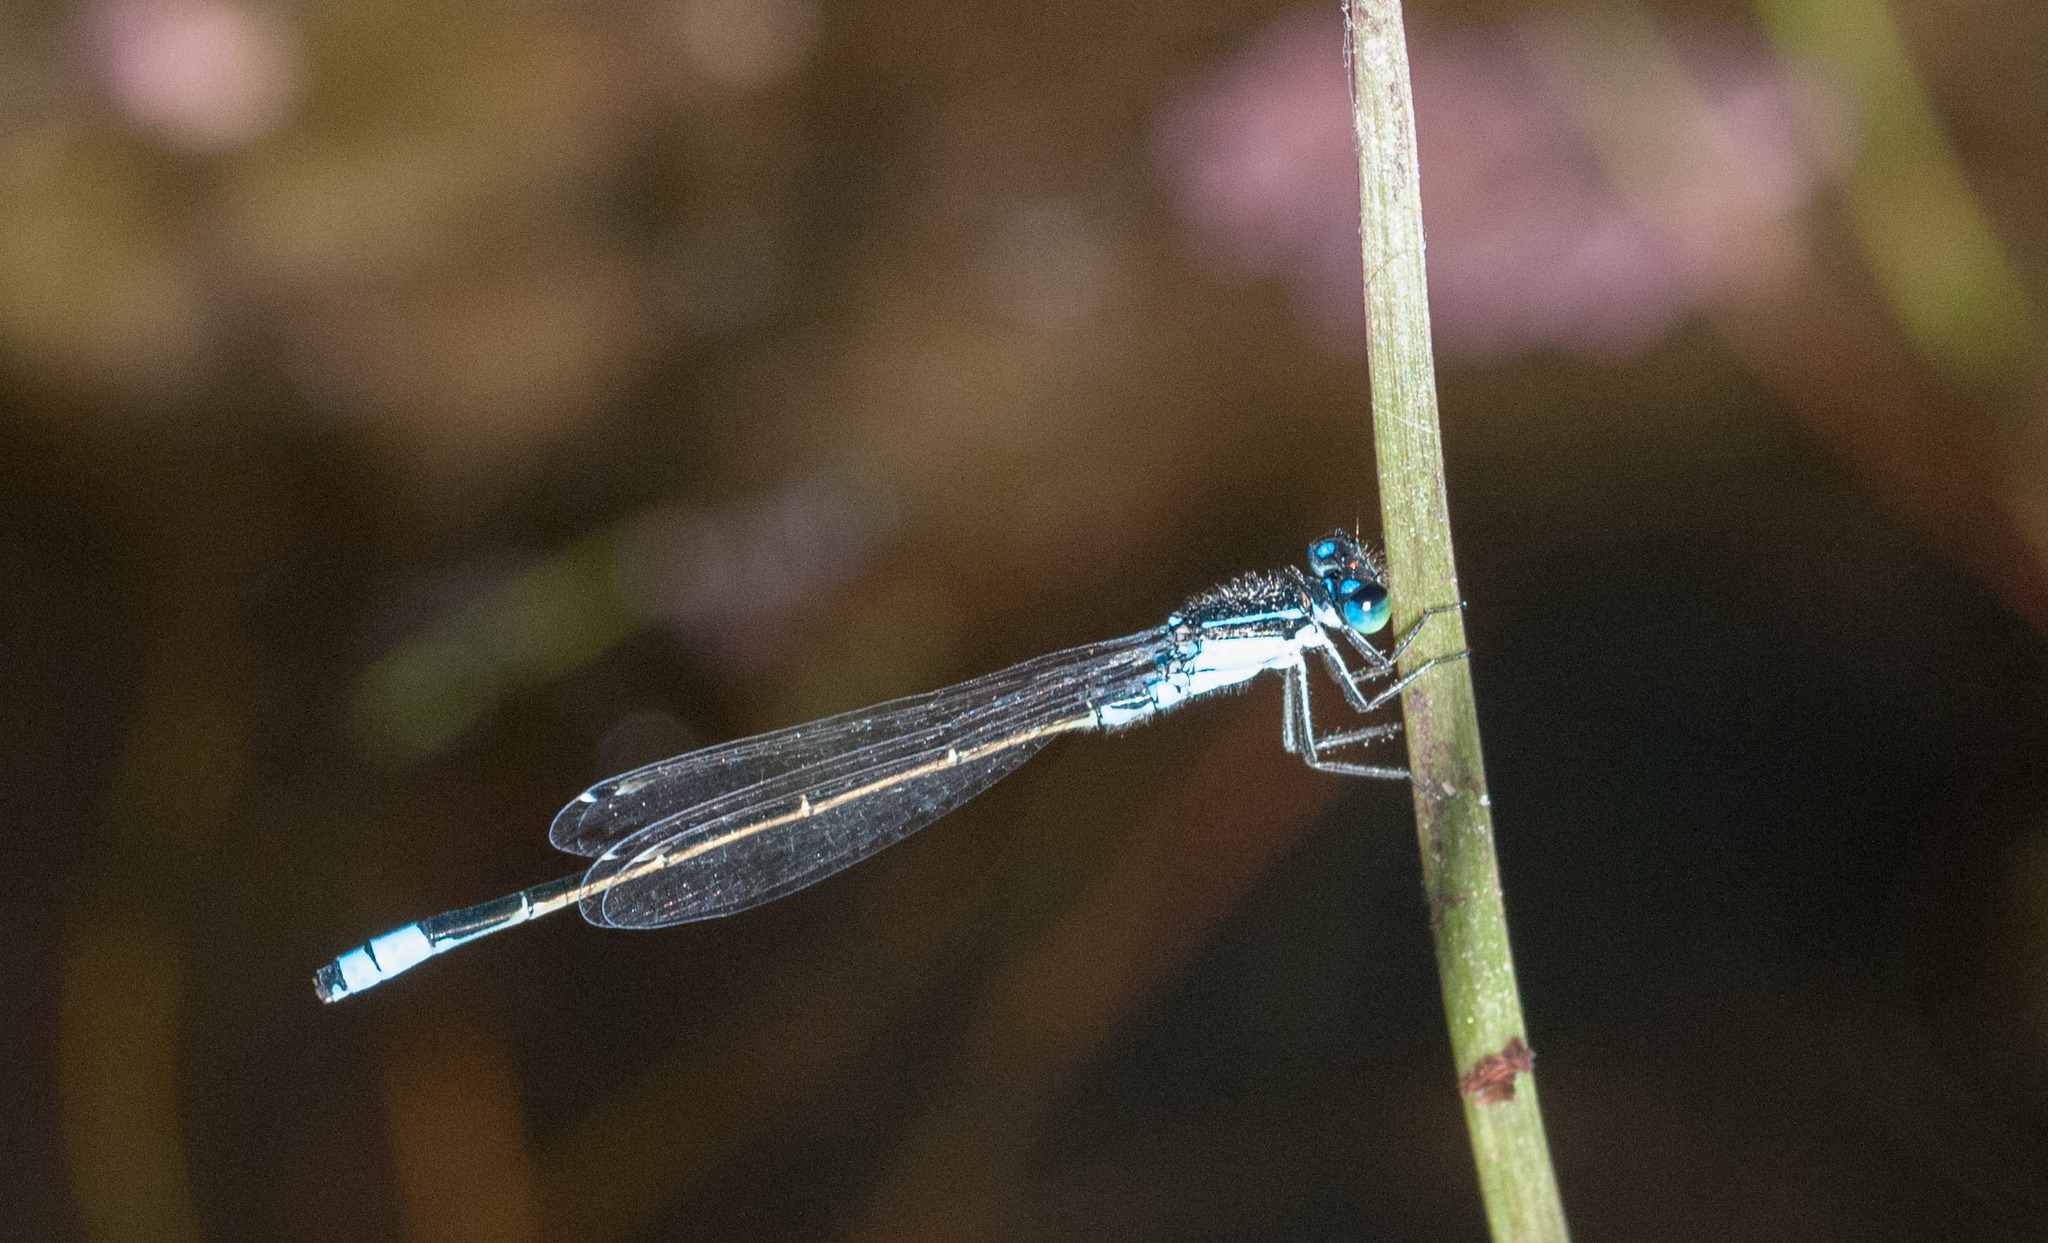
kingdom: Animalia
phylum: Arthropoda
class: Insecta
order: Odonata
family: Coenagrionidae
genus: Ischnura
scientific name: Ischnura heterosticta
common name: Common bluetail
